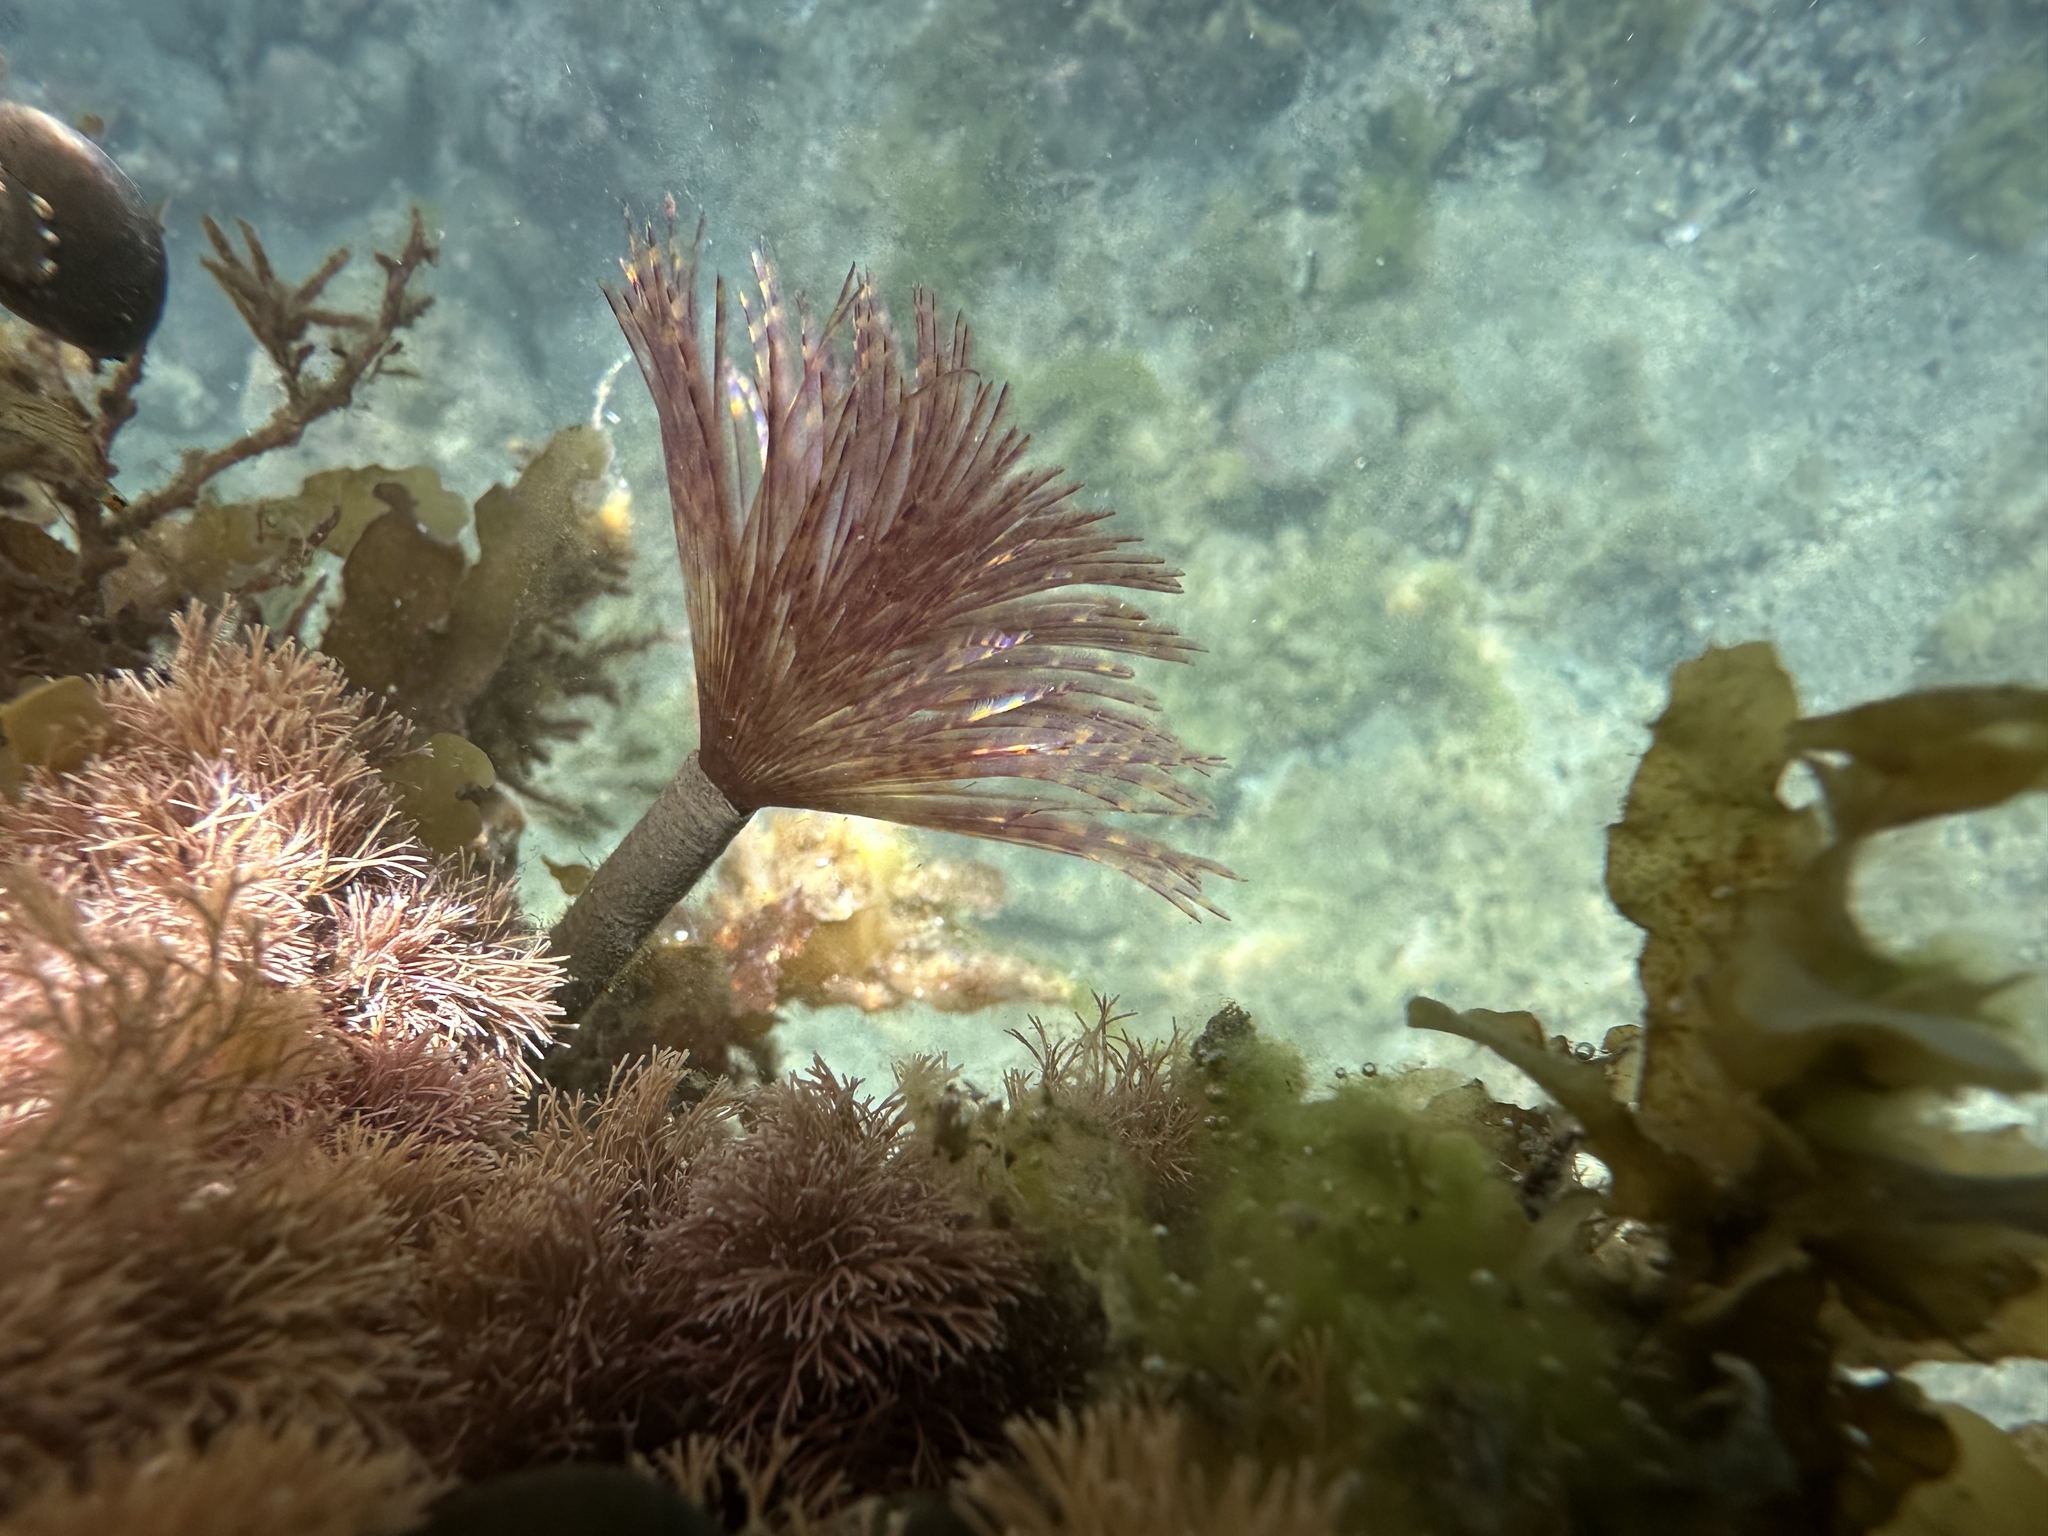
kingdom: Animalia
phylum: Annelida
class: Polychaeta
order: Sabellida
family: Sabellidae
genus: Sabella
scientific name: Sabella spallanzanii
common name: Feather duster worm
